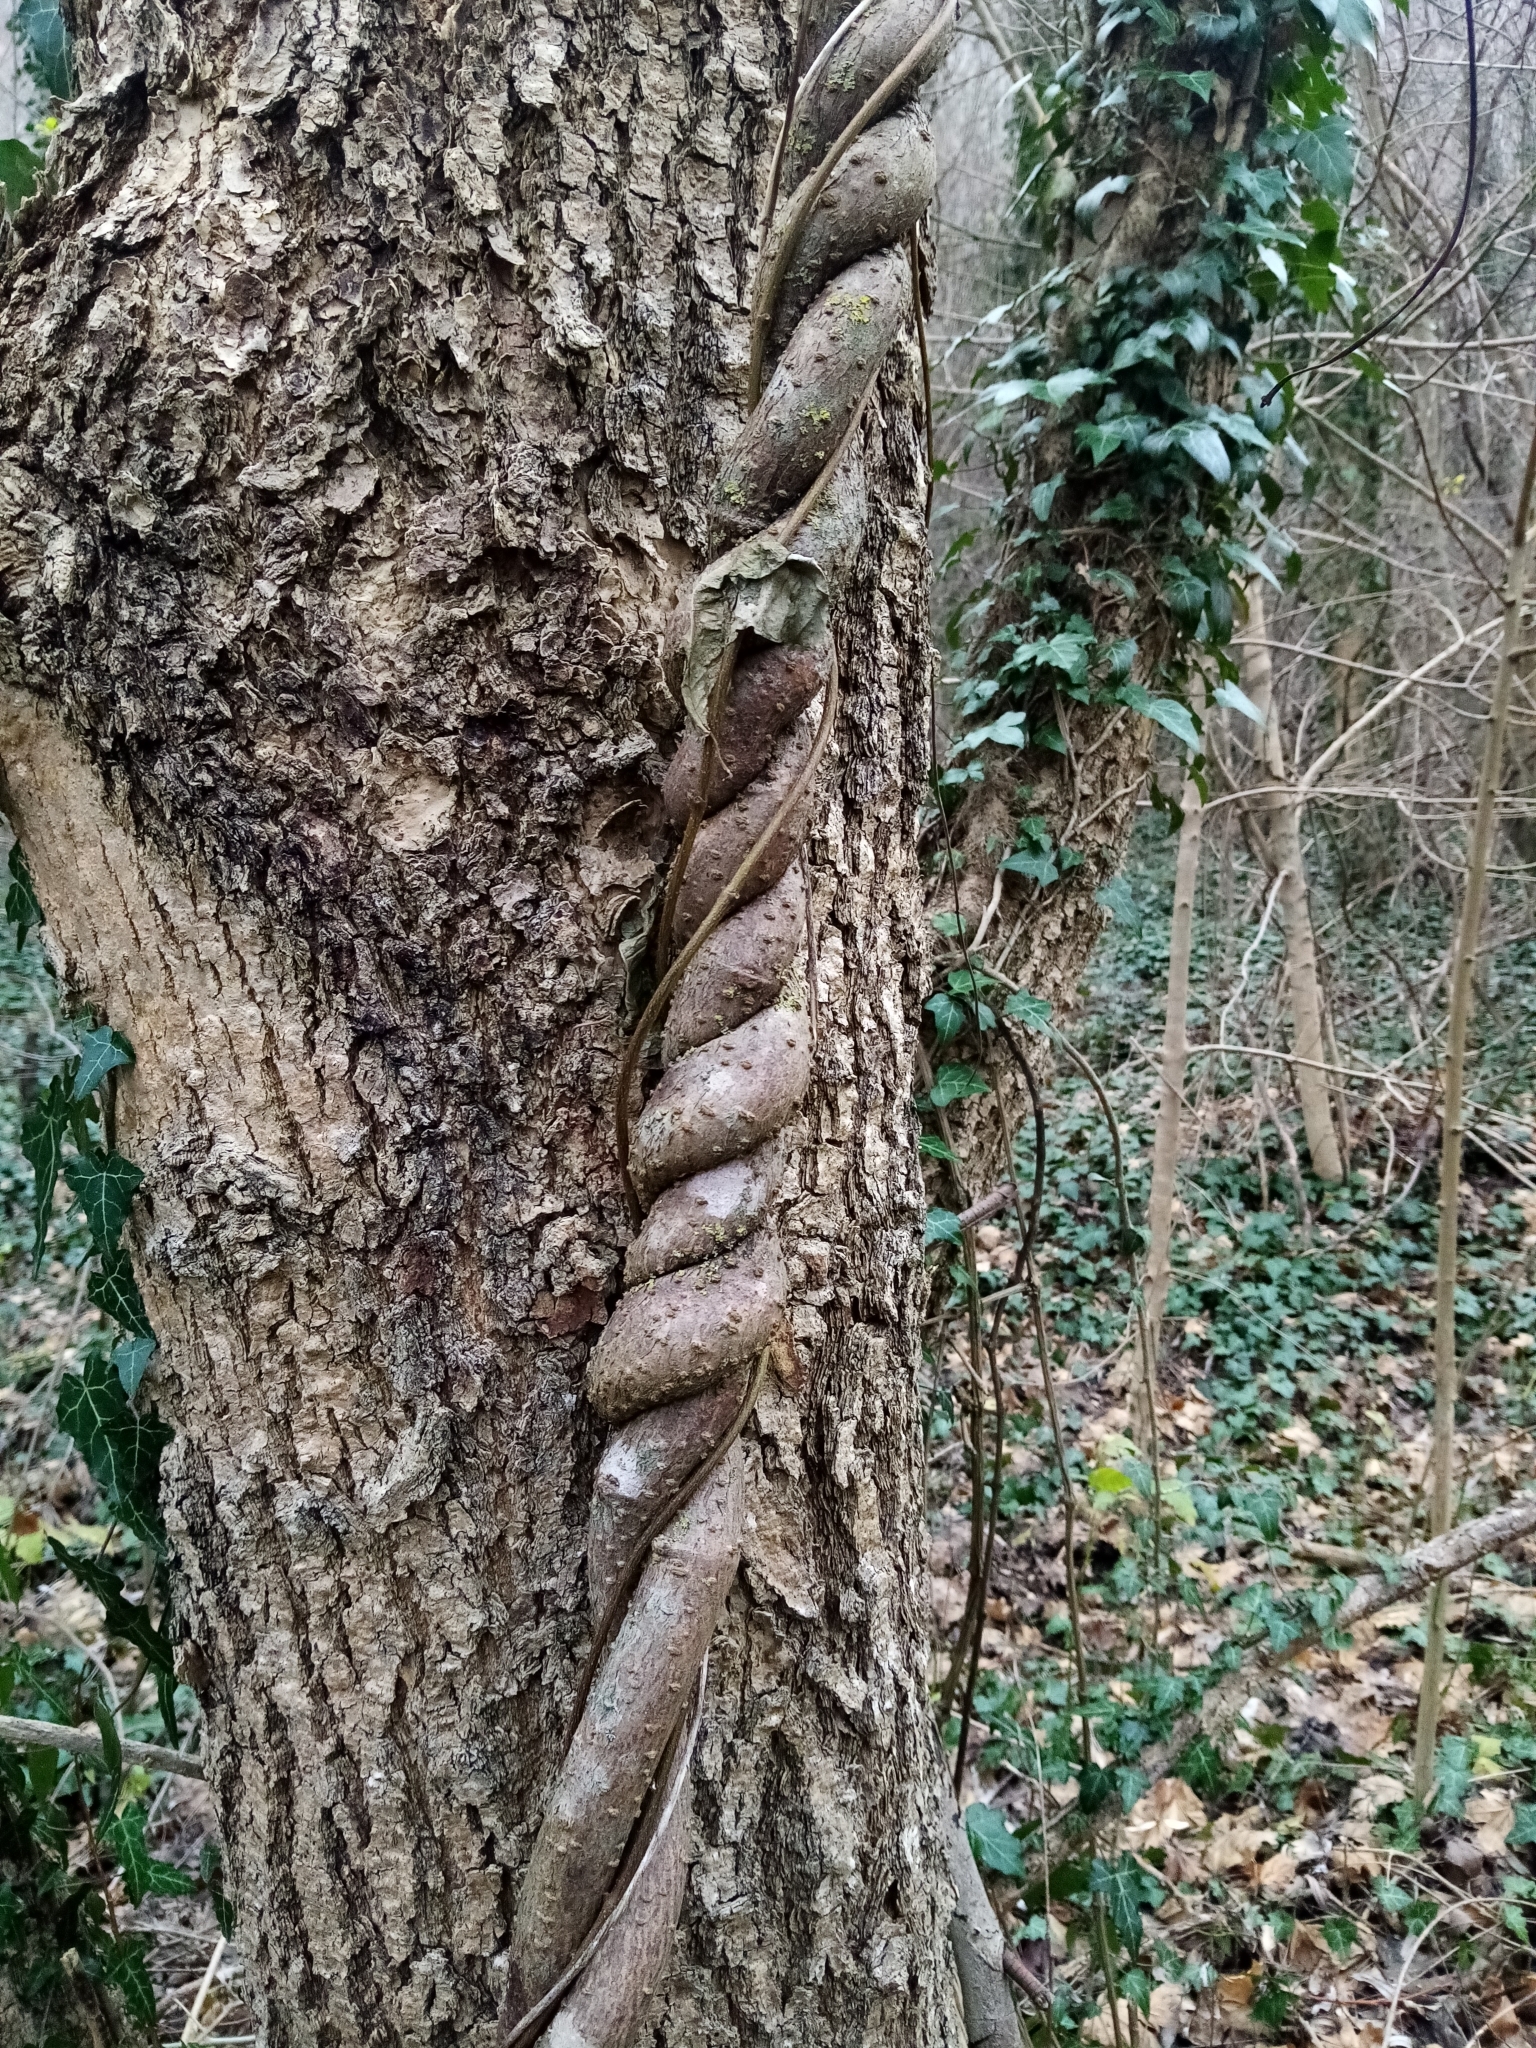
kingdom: Plantae
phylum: Tracheophyta
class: Magnoliopsida
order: Gentianales
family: Apocynaceae
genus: Periploca
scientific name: Periploca graeca
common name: Silkvine
